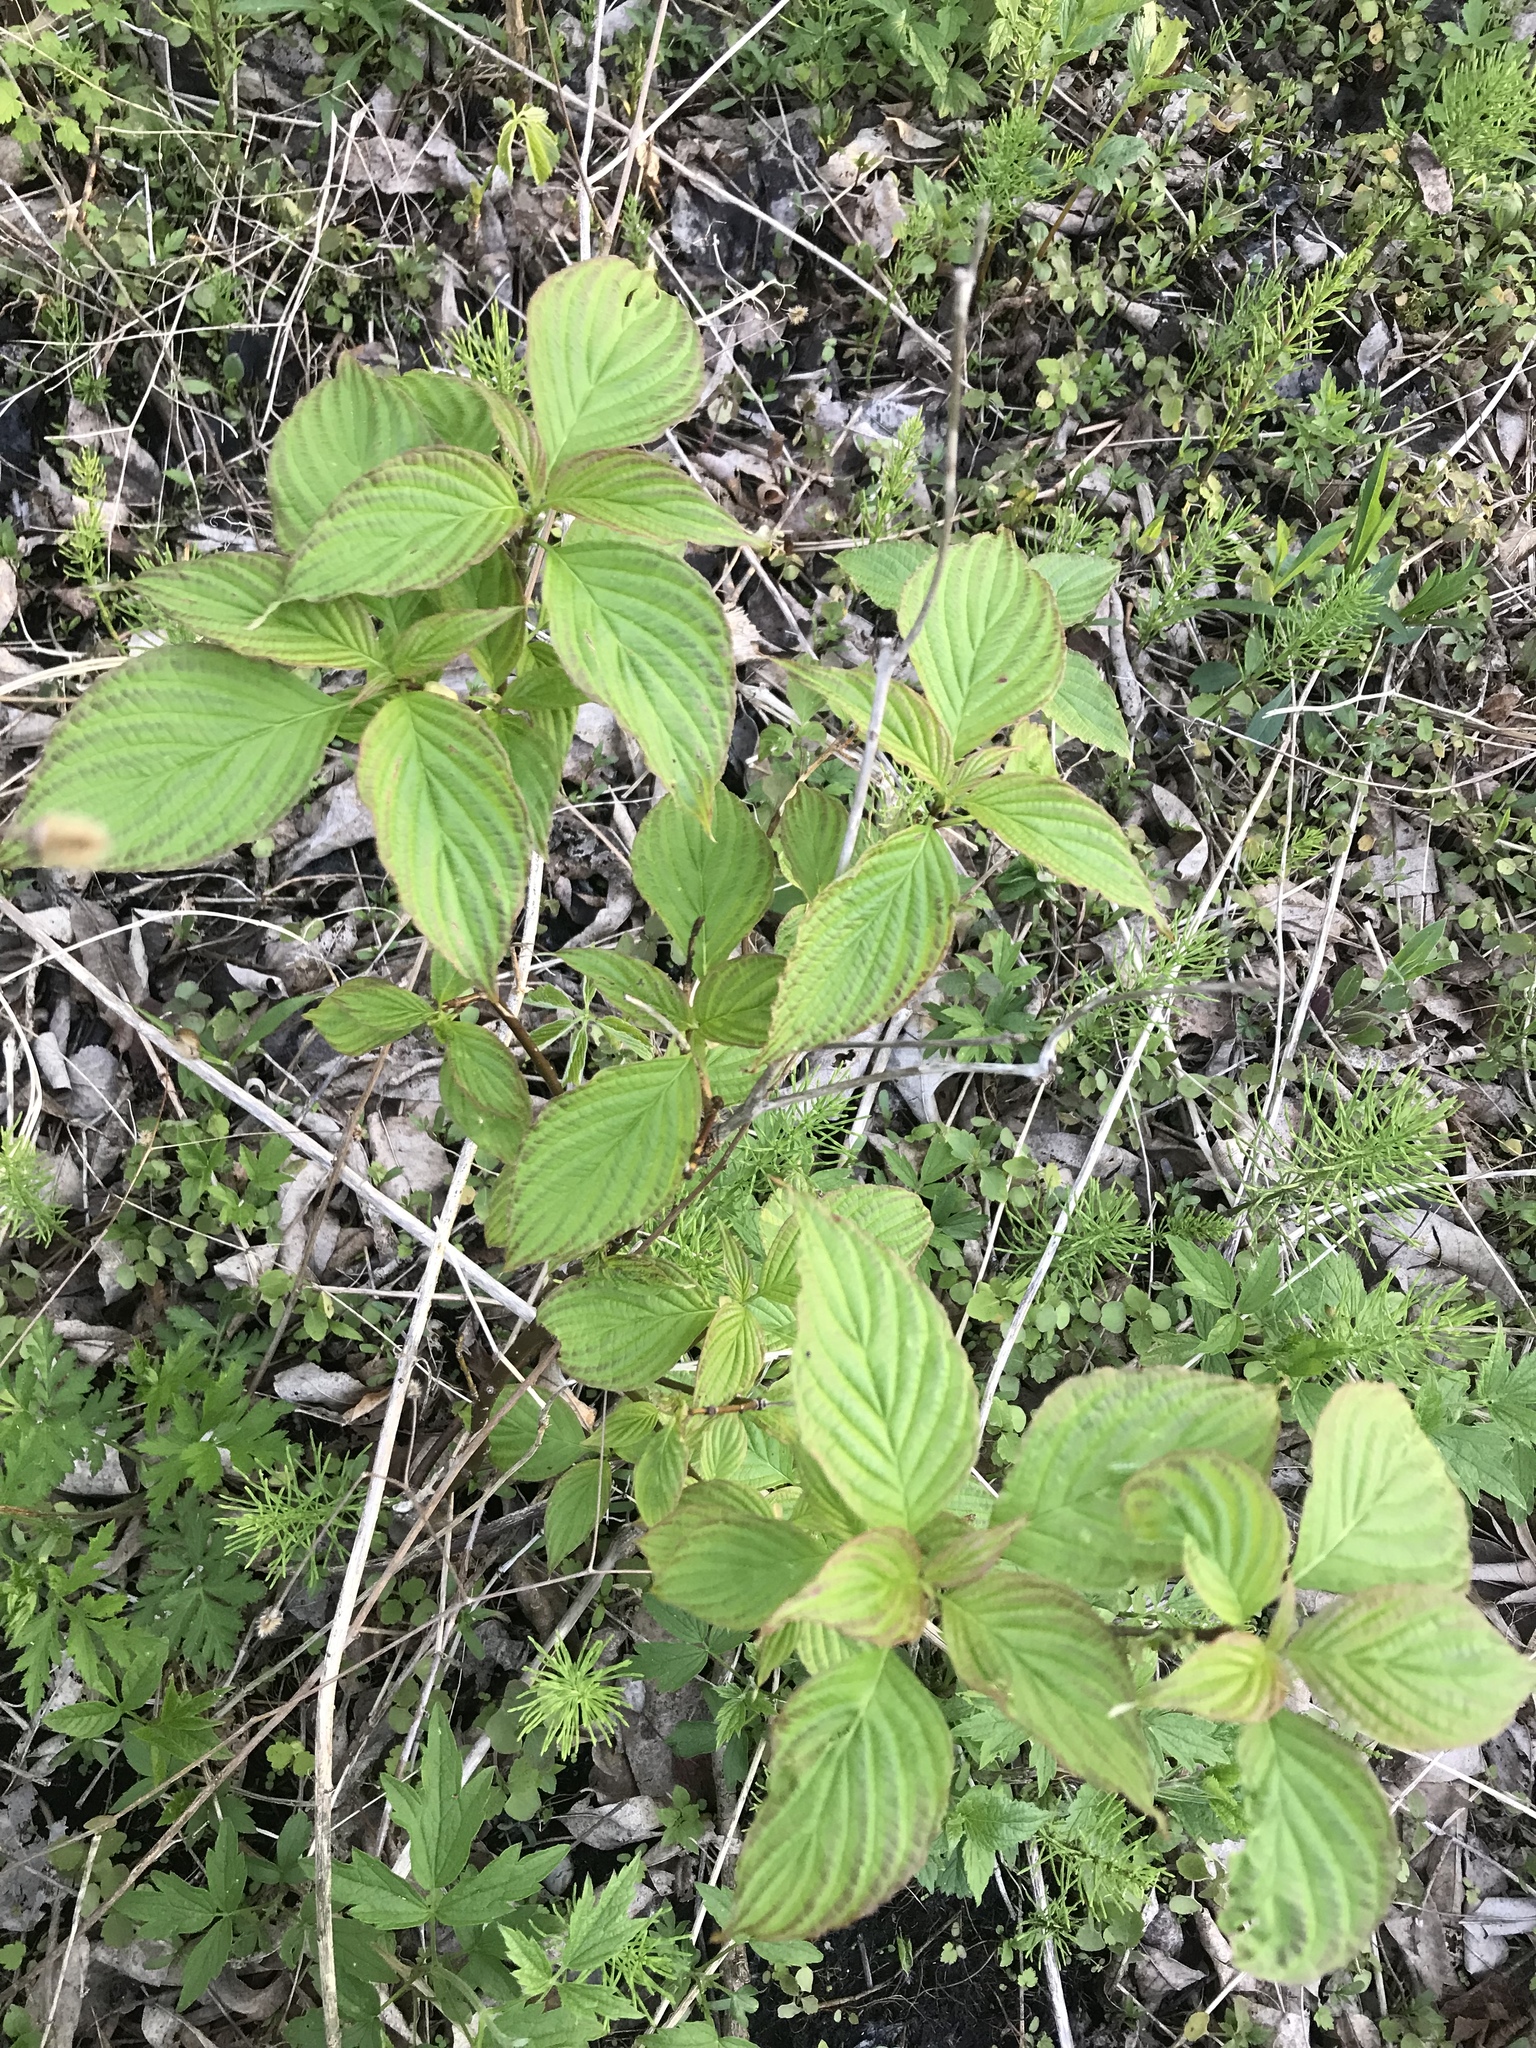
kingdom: Plantae
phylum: Tracheophyta
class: Magnoliopsida
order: Cornales
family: Cornaceae
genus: Cornus
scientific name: Cornus sericea
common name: Red-osier dogwood
